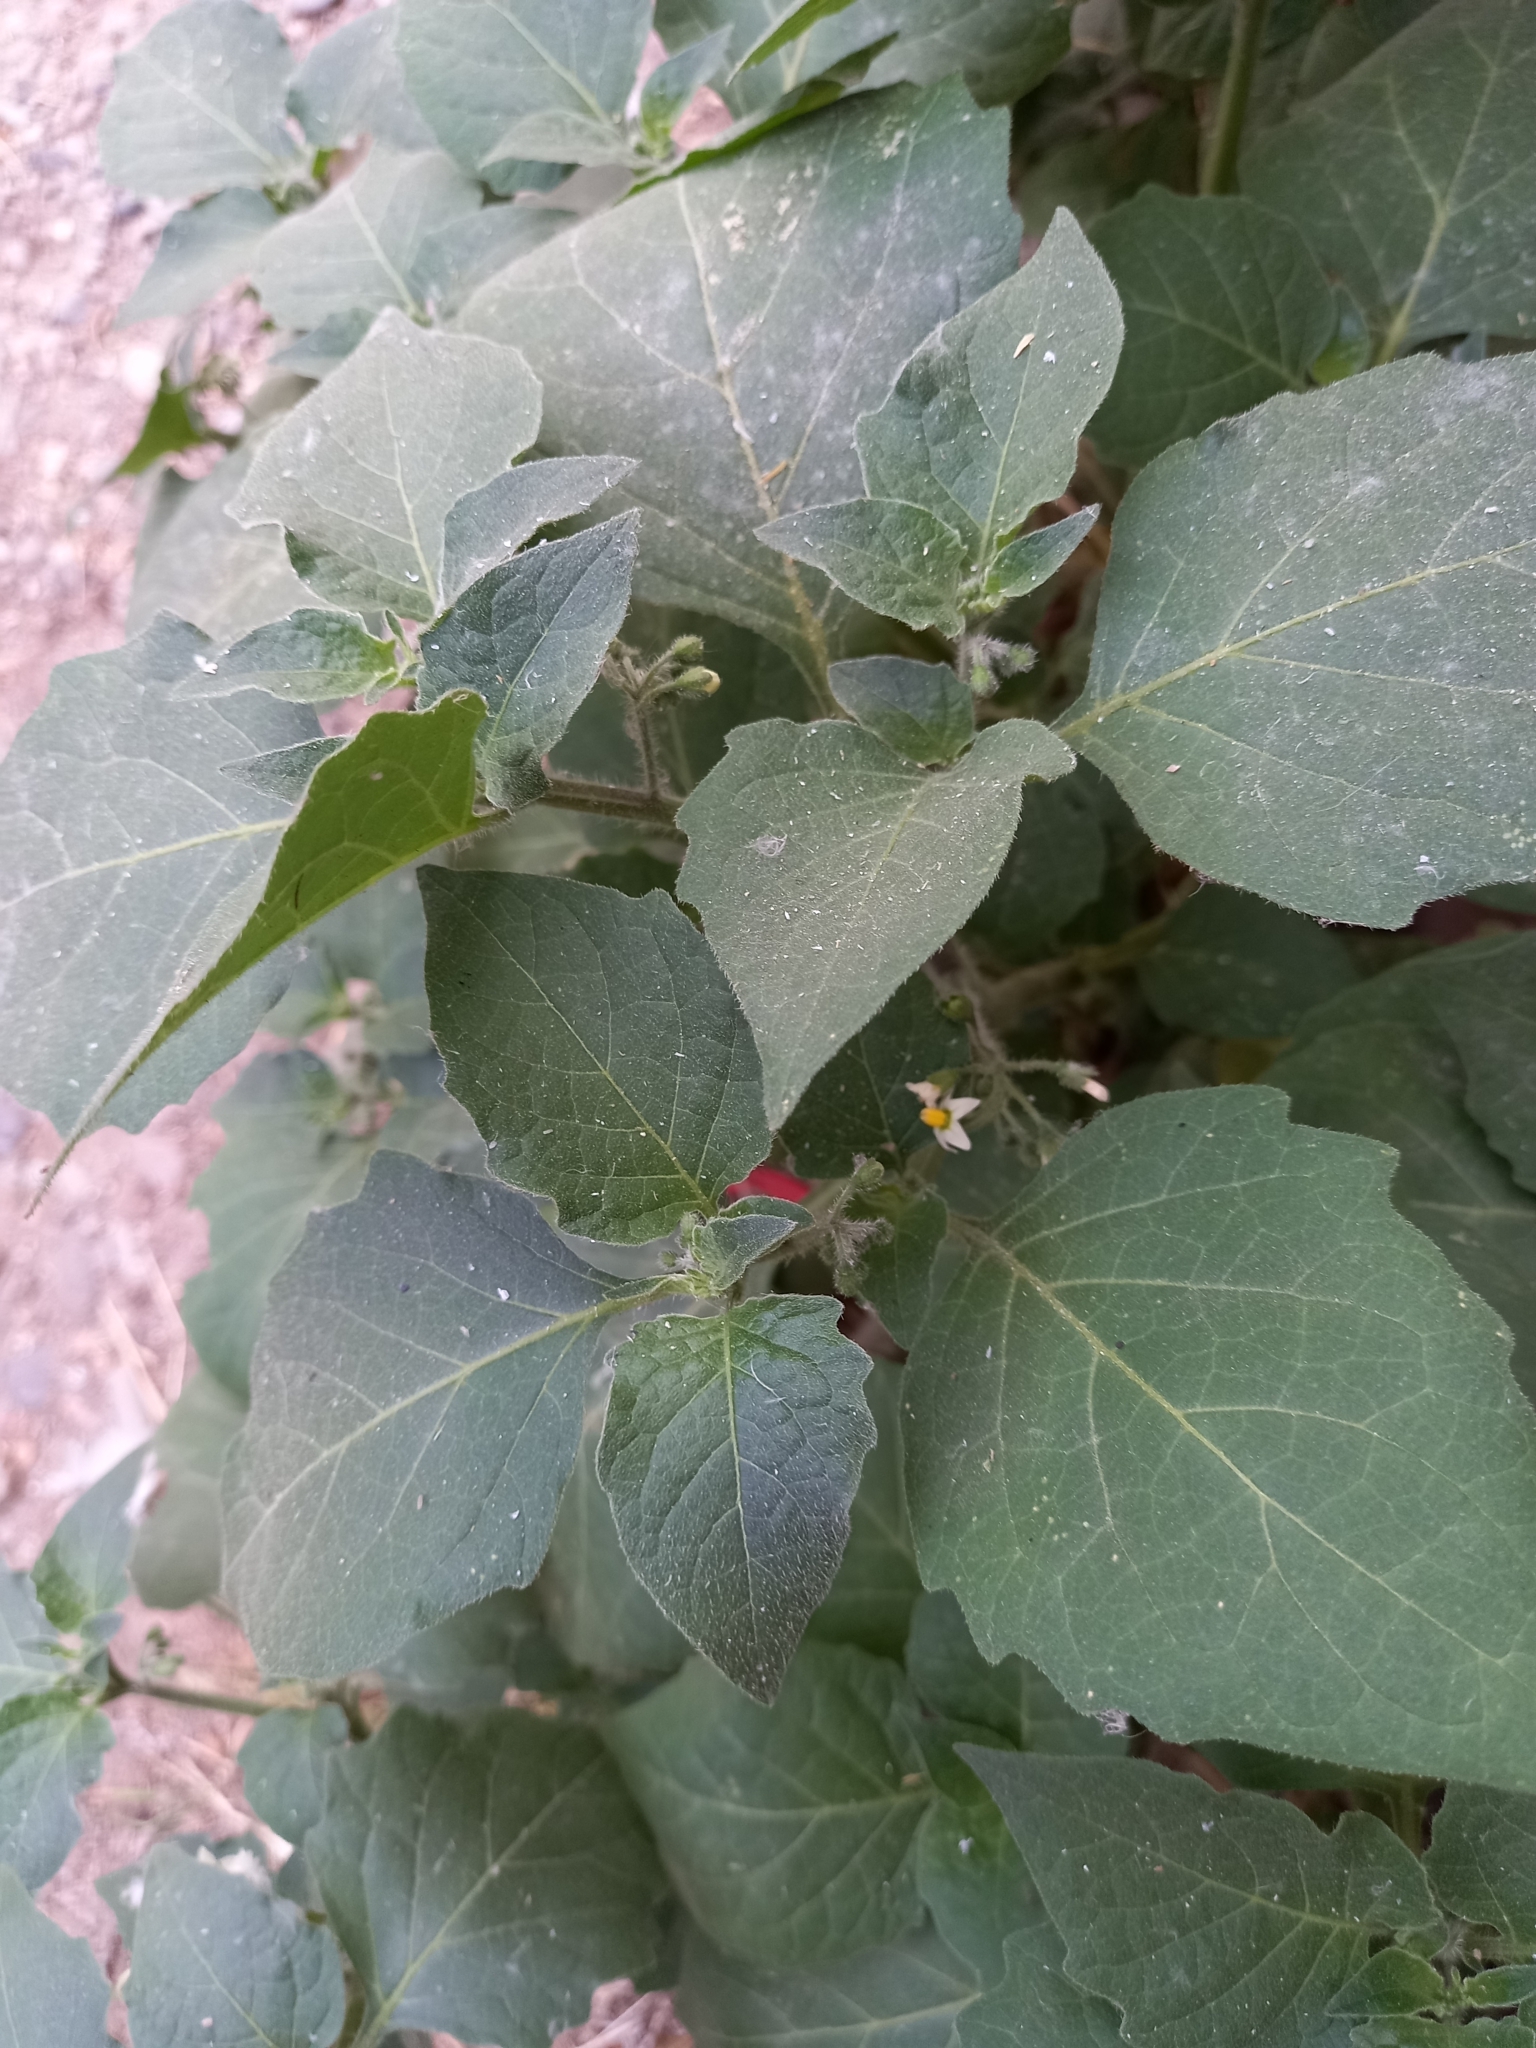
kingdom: Plantae
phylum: Tracheophyta
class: Magnoliopsida
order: Solanales
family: Solanaceae
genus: Solanum
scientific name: Solanum nigrum
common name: Black nightshade
